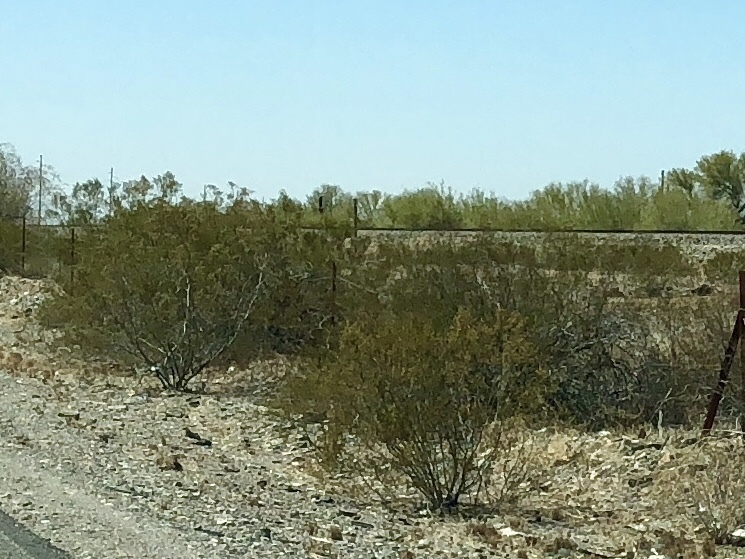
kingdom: Plantae
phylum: Tracheophyta
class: Magnoliopsida
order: Zygophyllales
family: Zygophyllaceae
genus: Larrea
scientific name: Larrea tridentata
